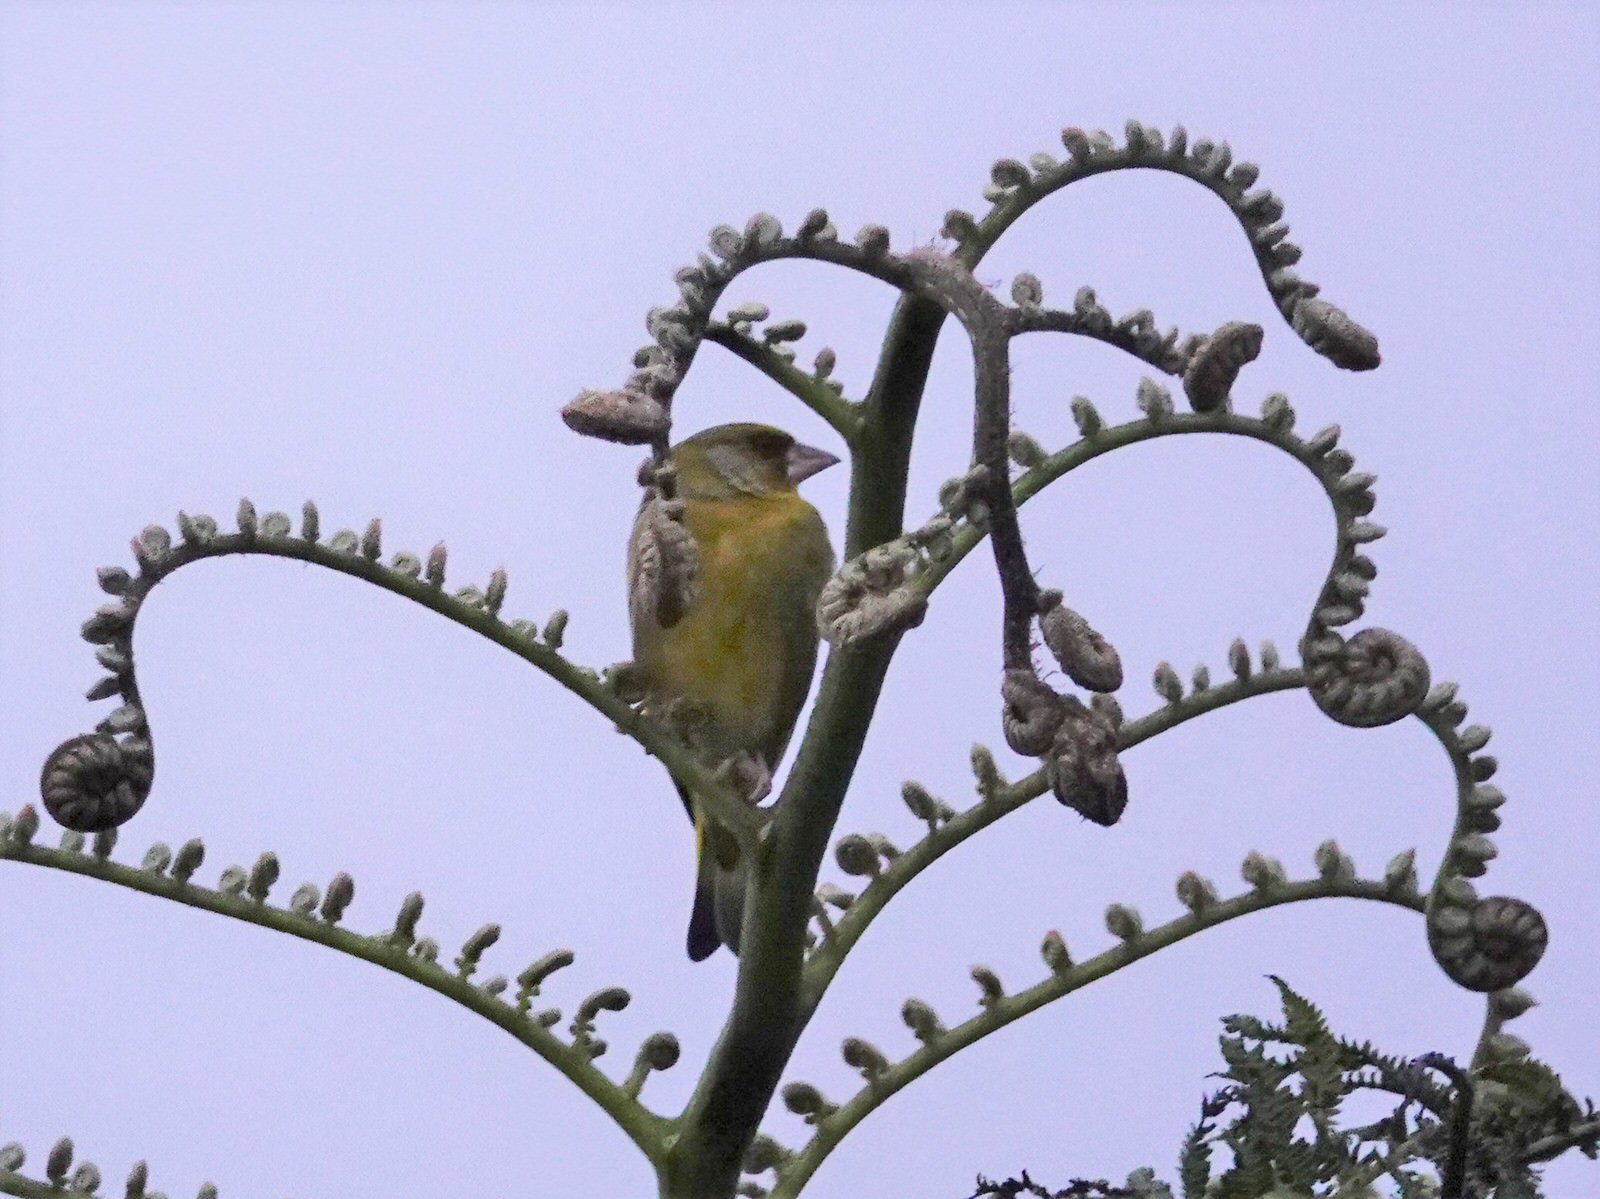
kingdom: Plantae
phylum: Tracheophyta
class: Liliopsida
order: Poales
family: Poaceae
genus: Chloris
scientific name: Chloris chloris
